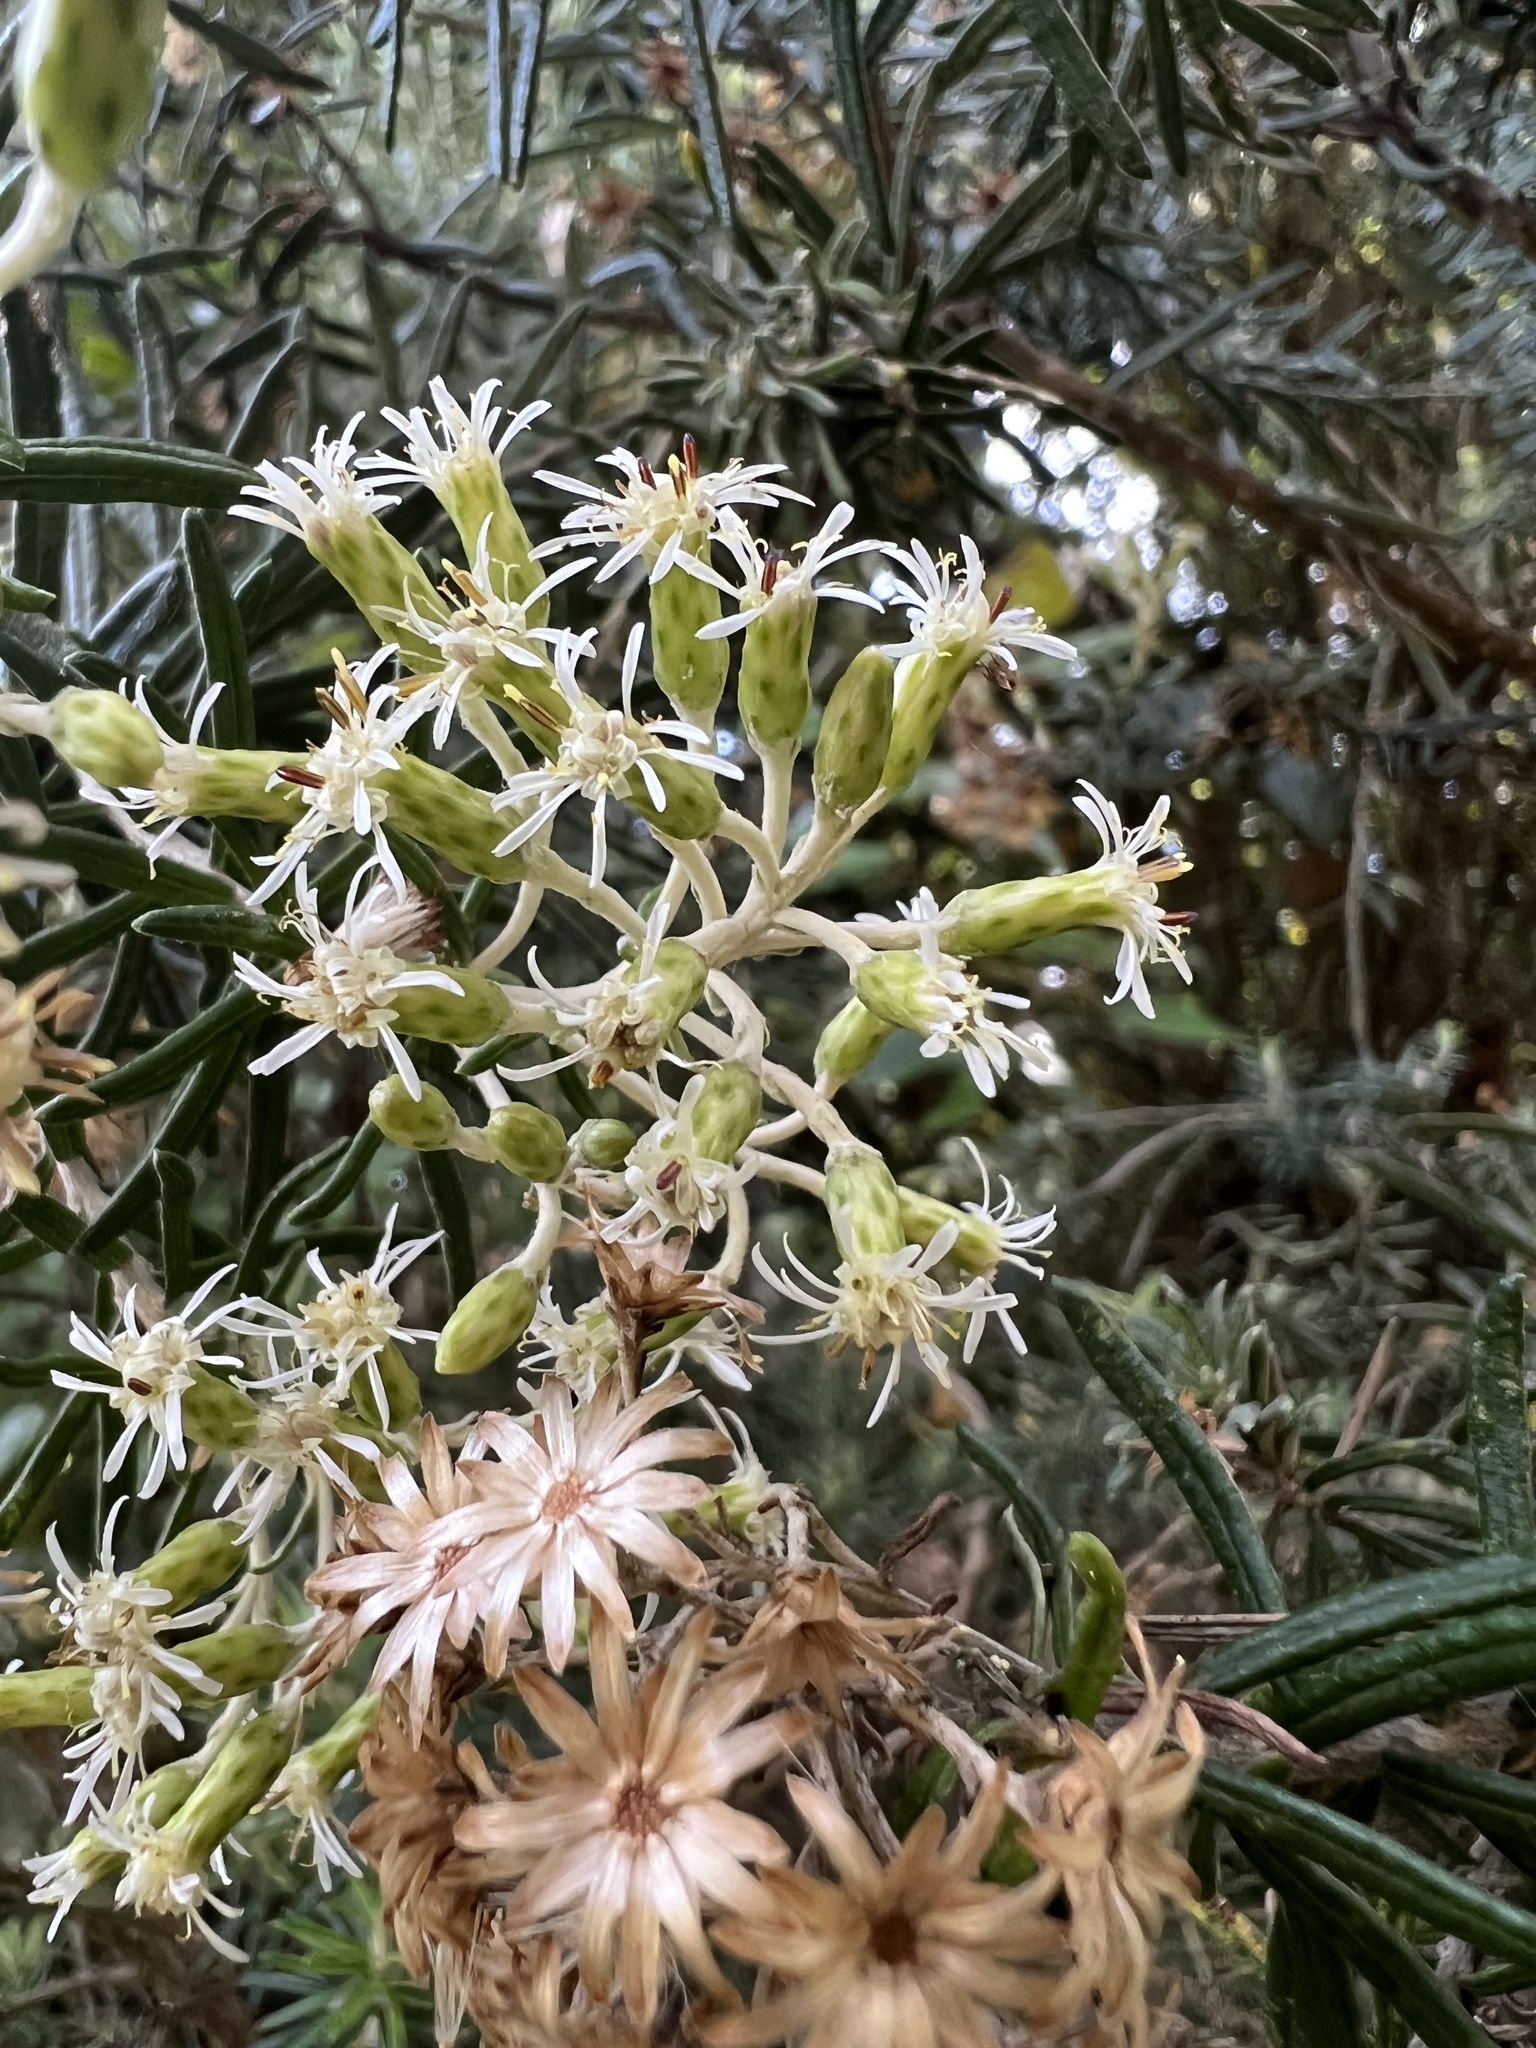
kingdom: Plantae
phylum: Tracheophyta
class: Magnoliopsida
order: Asterales
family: Asteraceae
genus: Linochilus
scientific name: Linochilus rosmarinifolius
